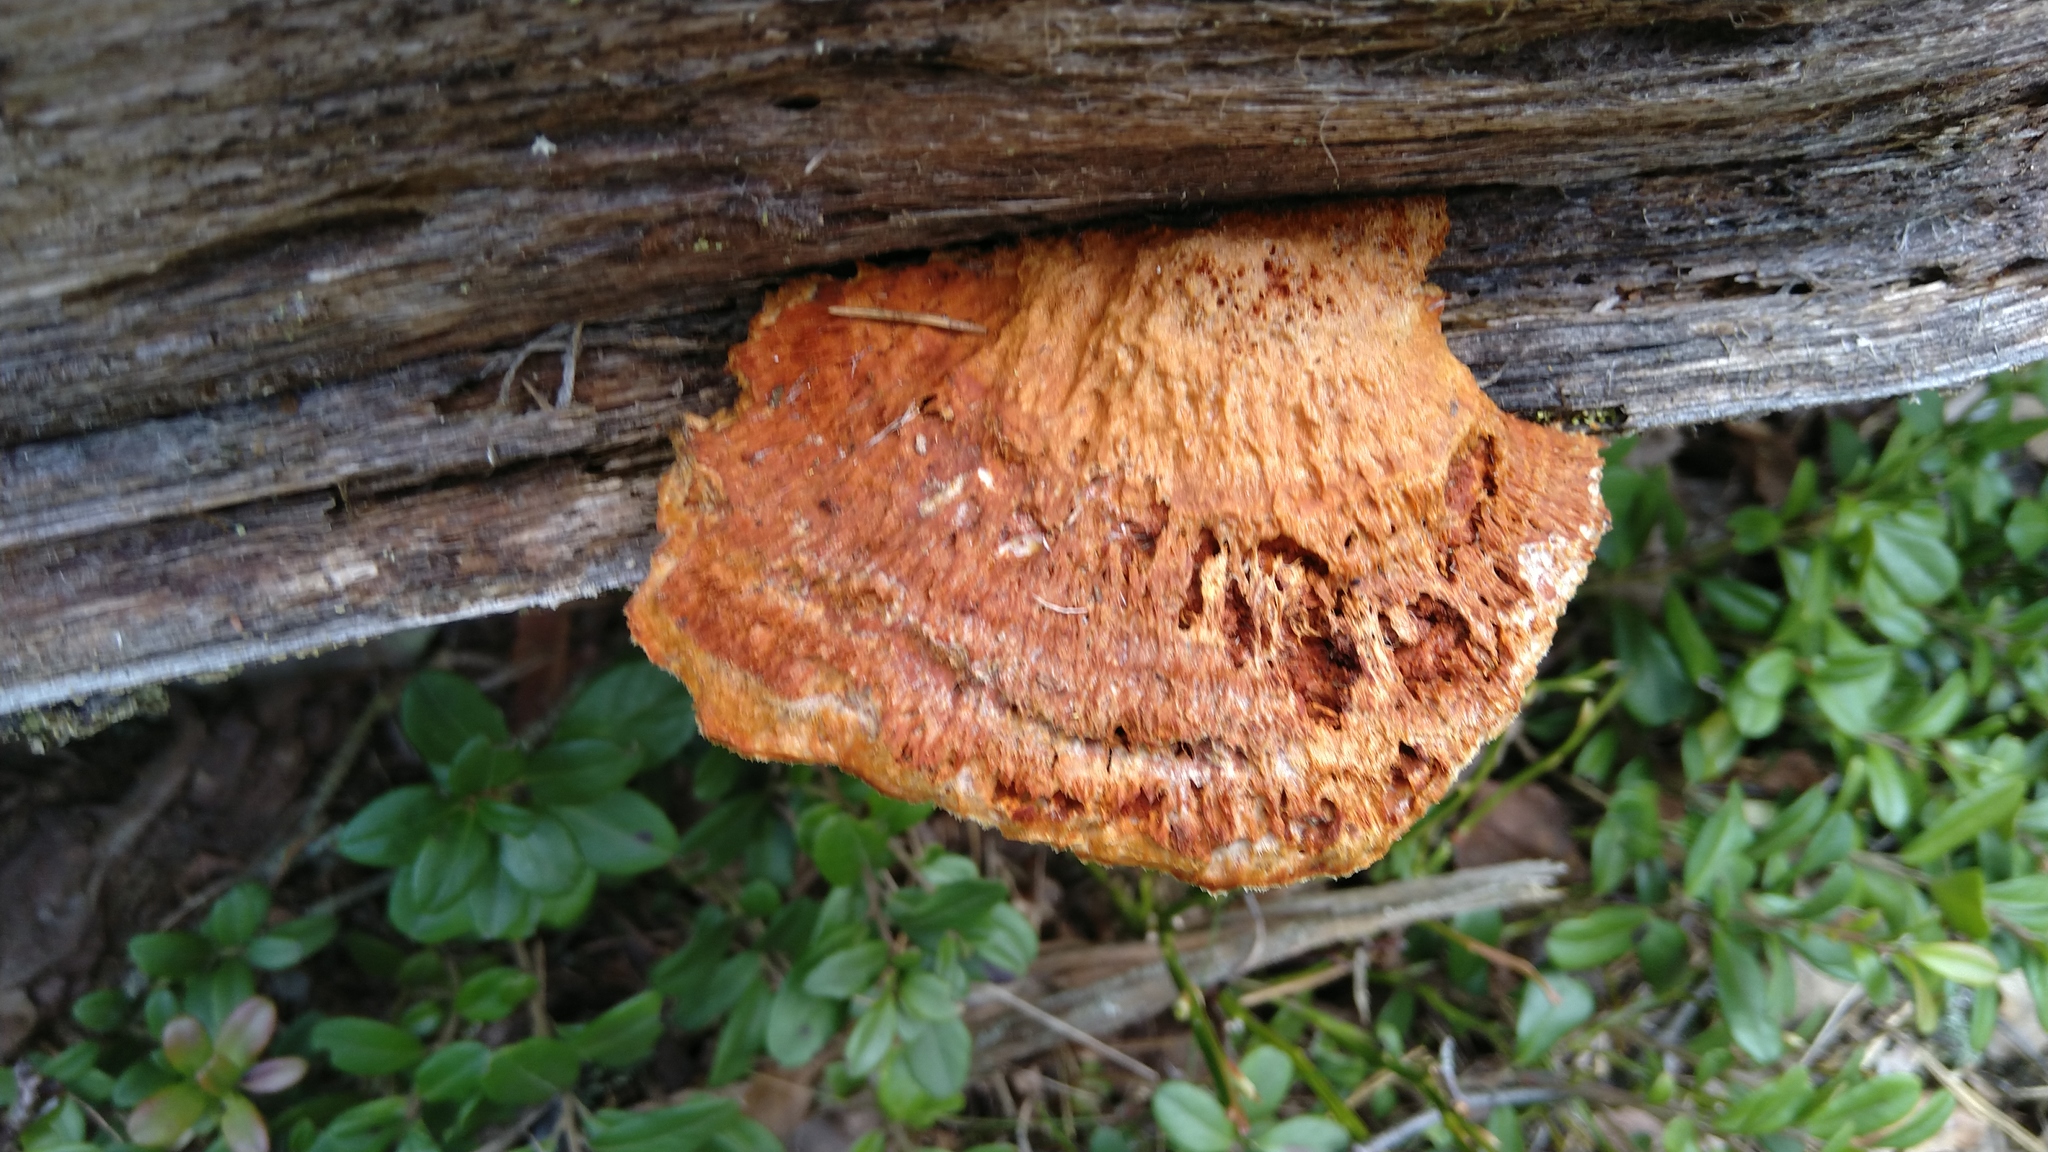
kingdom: Fungi
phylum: Basidiomycota
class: Agaricomycetes
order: Polyporales
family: Pycnoporellaceae
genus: Pycnoporellus
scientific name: Pycnoporellus fulgens
